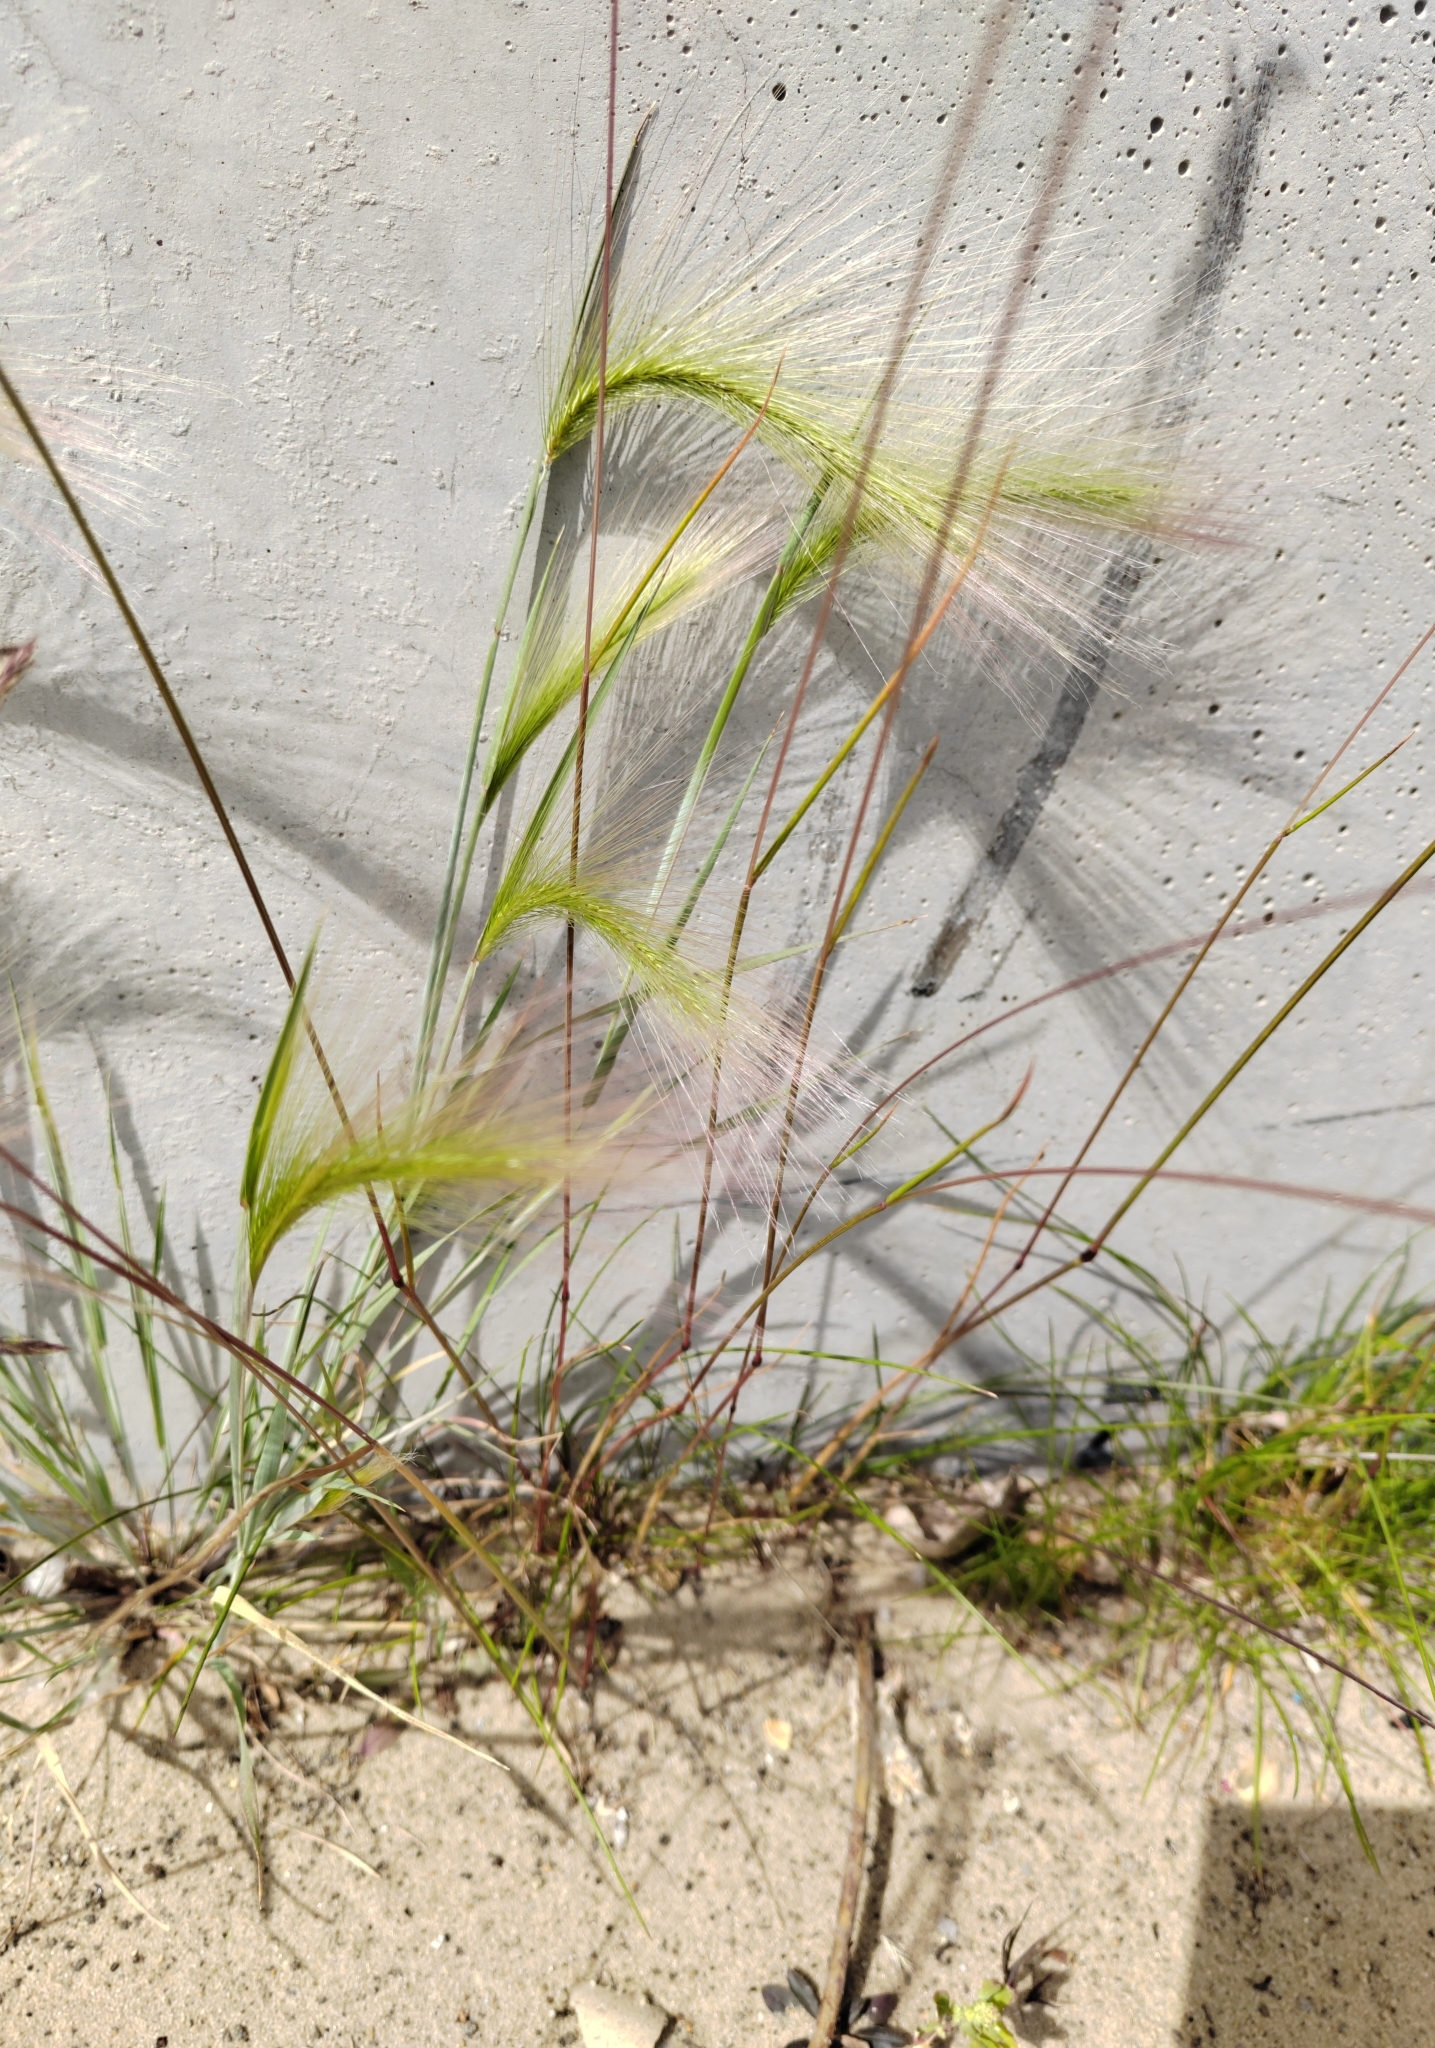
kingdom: Plantae
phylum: Tracheophyta
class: Liliopsida
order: Poales
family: Poaceae
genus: Hordeum
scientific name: Hordeum jubatum
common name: Foxtail barley
